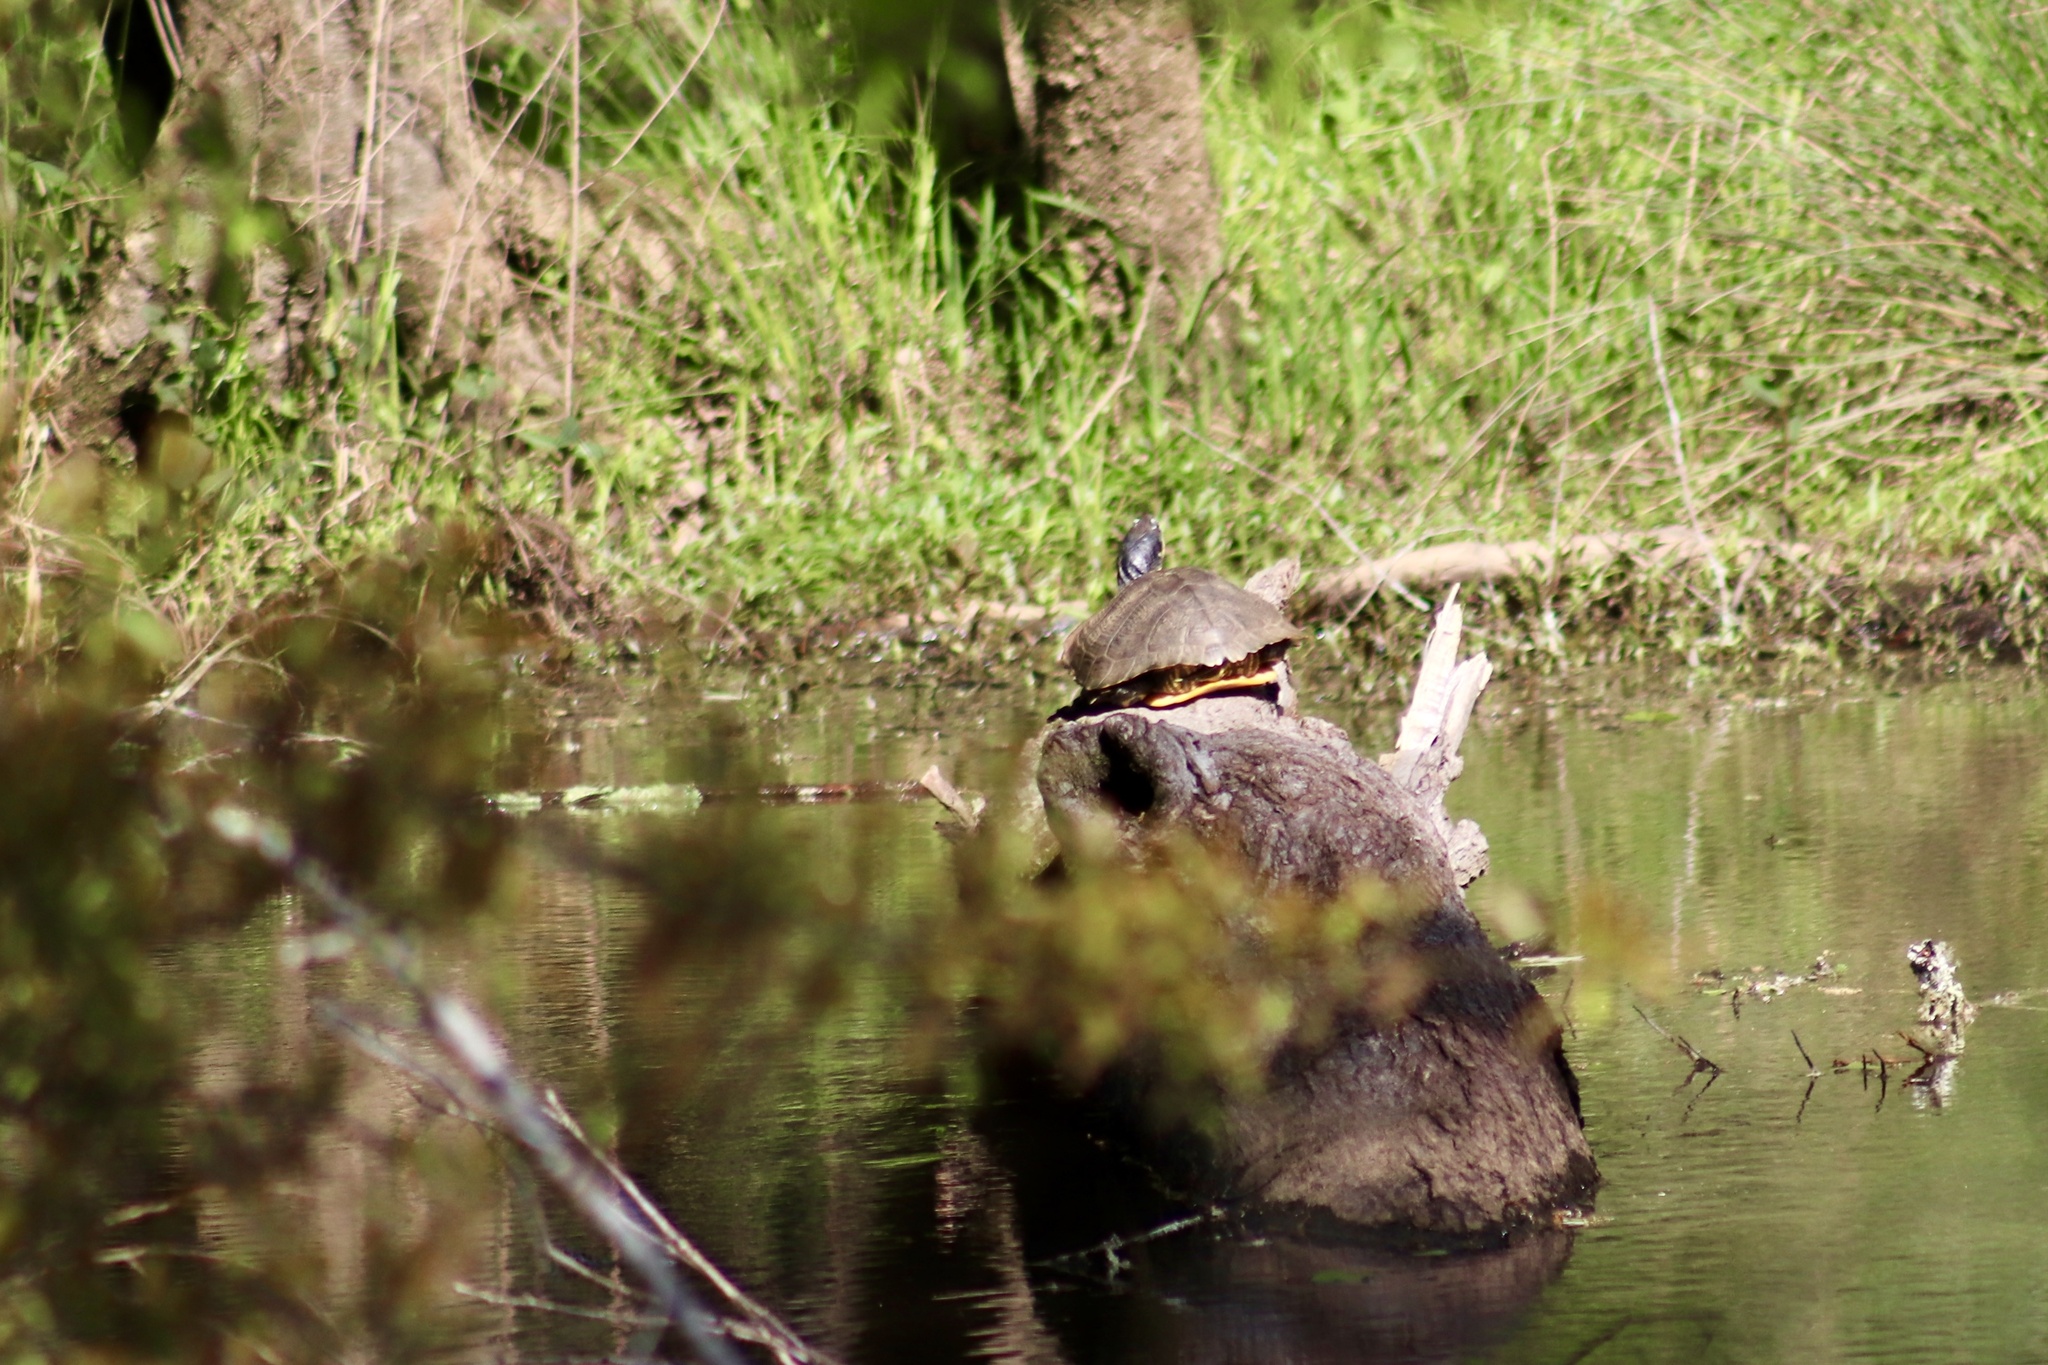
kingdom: Animalia
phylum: Chordata
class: Testudines
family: Emydidae
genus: Trachemys
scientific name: Trachemys scripta
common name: Slider
